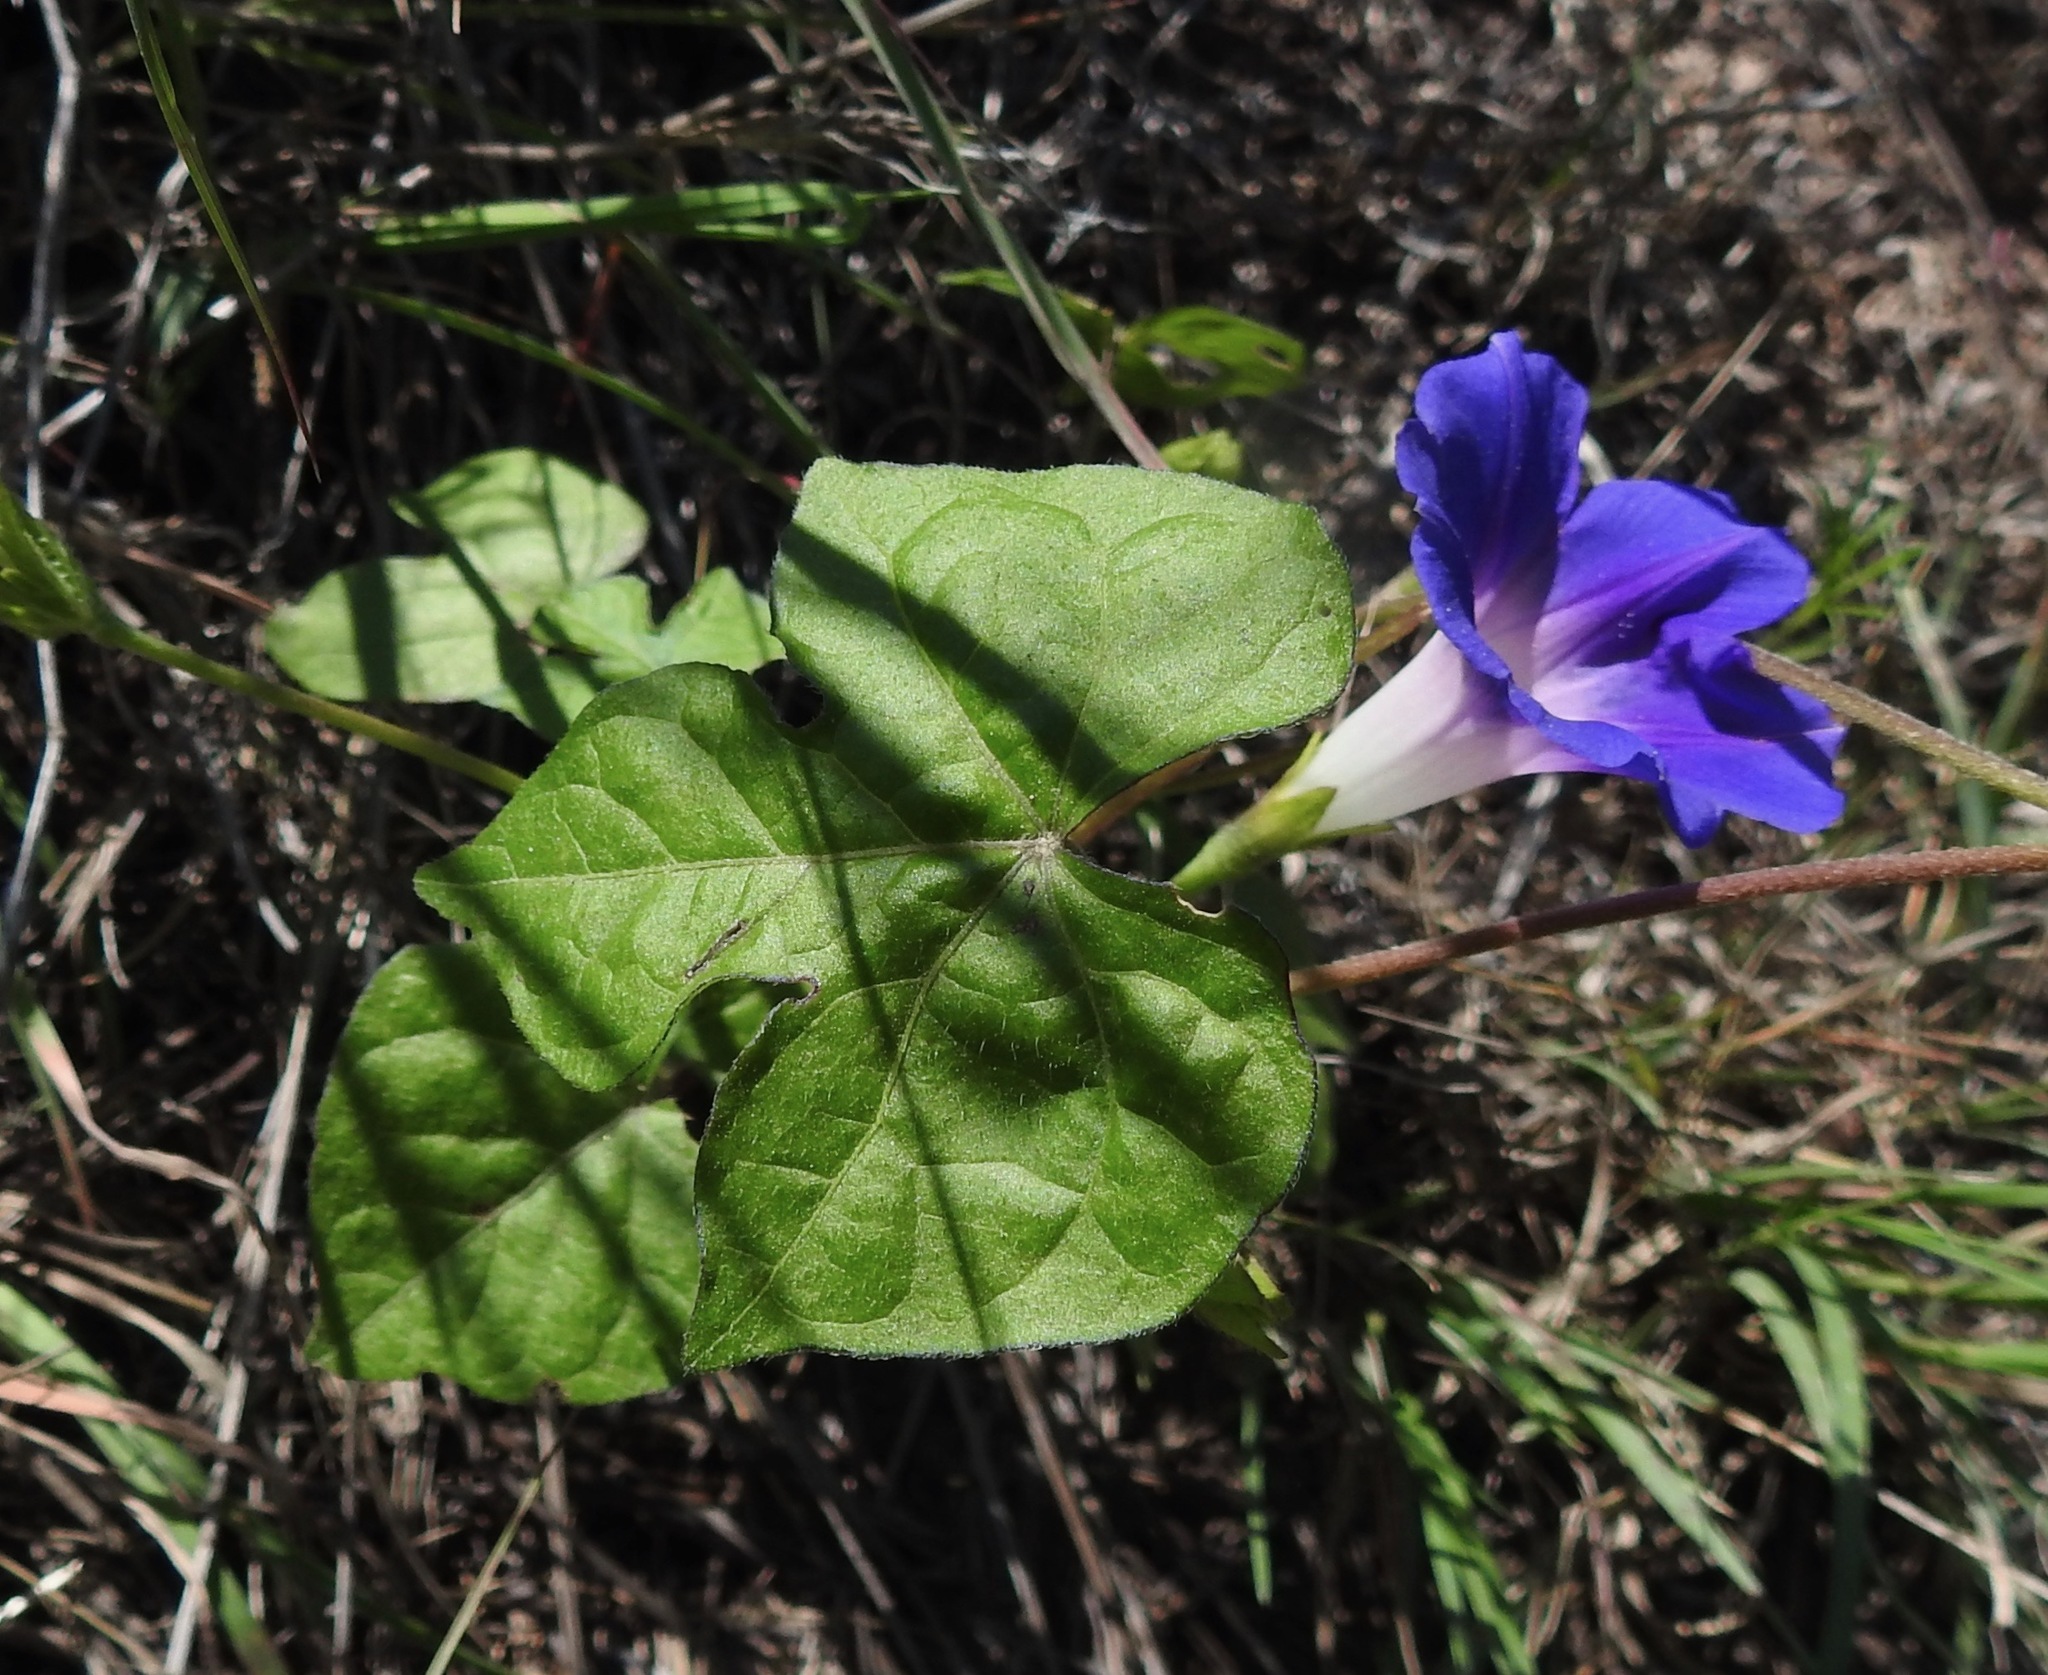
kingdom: Plantae
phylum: Tracheophyta
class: Magnoliopsida
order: Solanales
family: Convolvulaceae
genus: Ipomoea
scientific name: Ipomoea purpurea
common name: Common morning-glory
